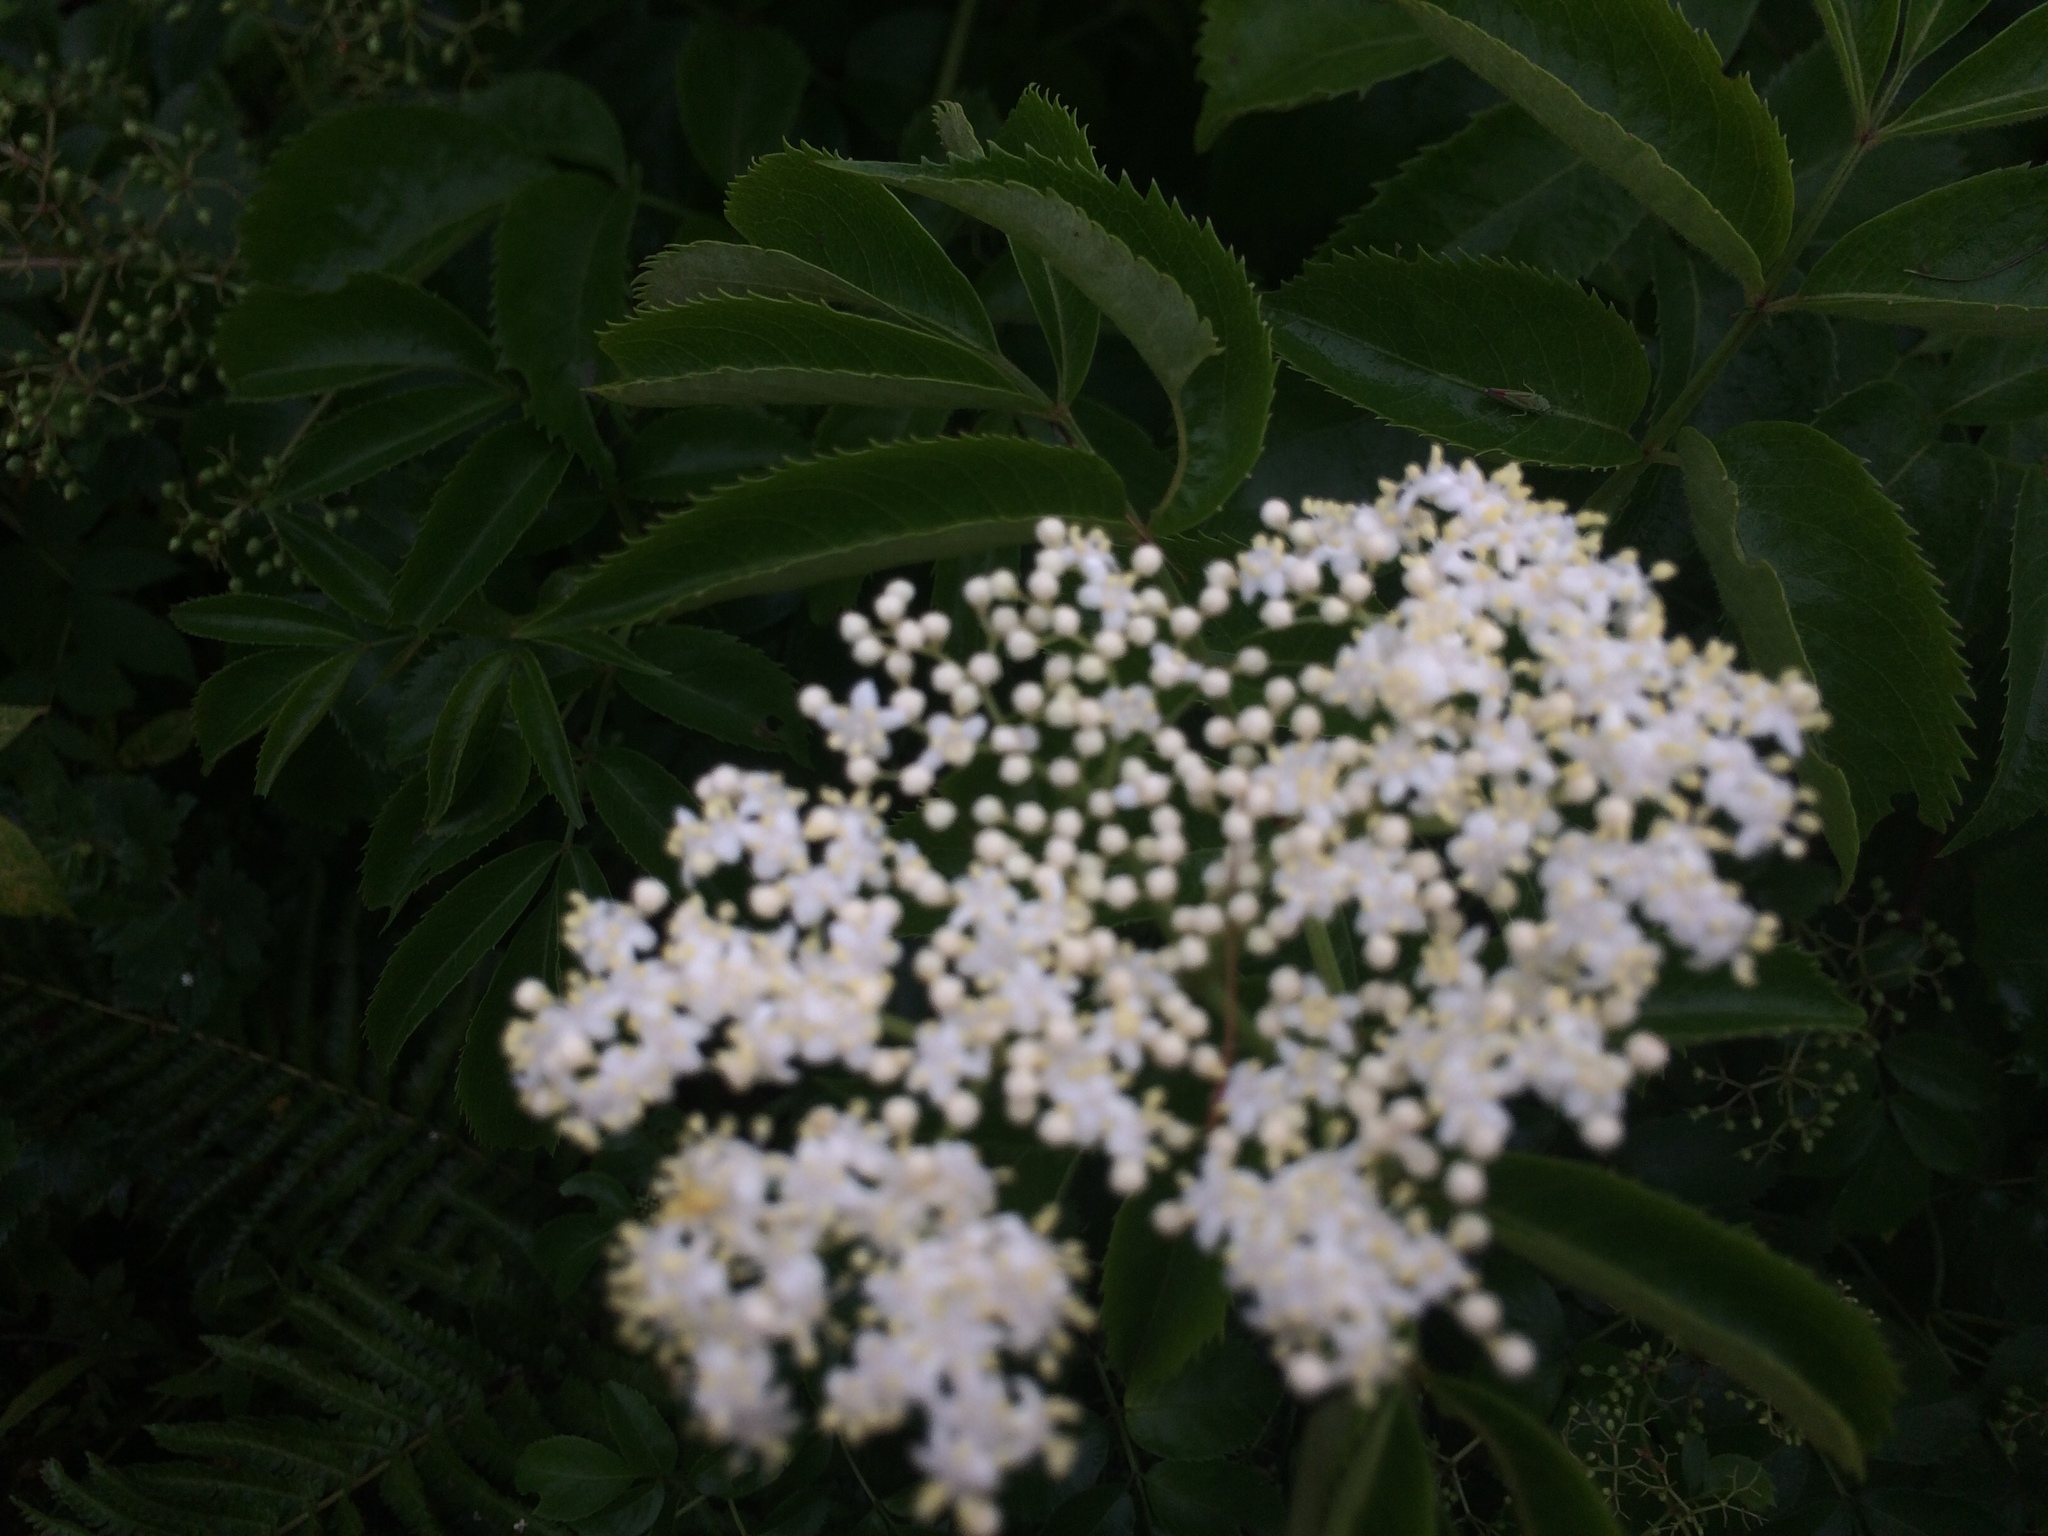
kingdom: Plantae
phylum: Tracheophyta
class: Magnoliopsida
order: Dipsacales
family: Viburnaceae
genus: Sambucus
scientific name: Sambucus canadensis
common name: American elder
